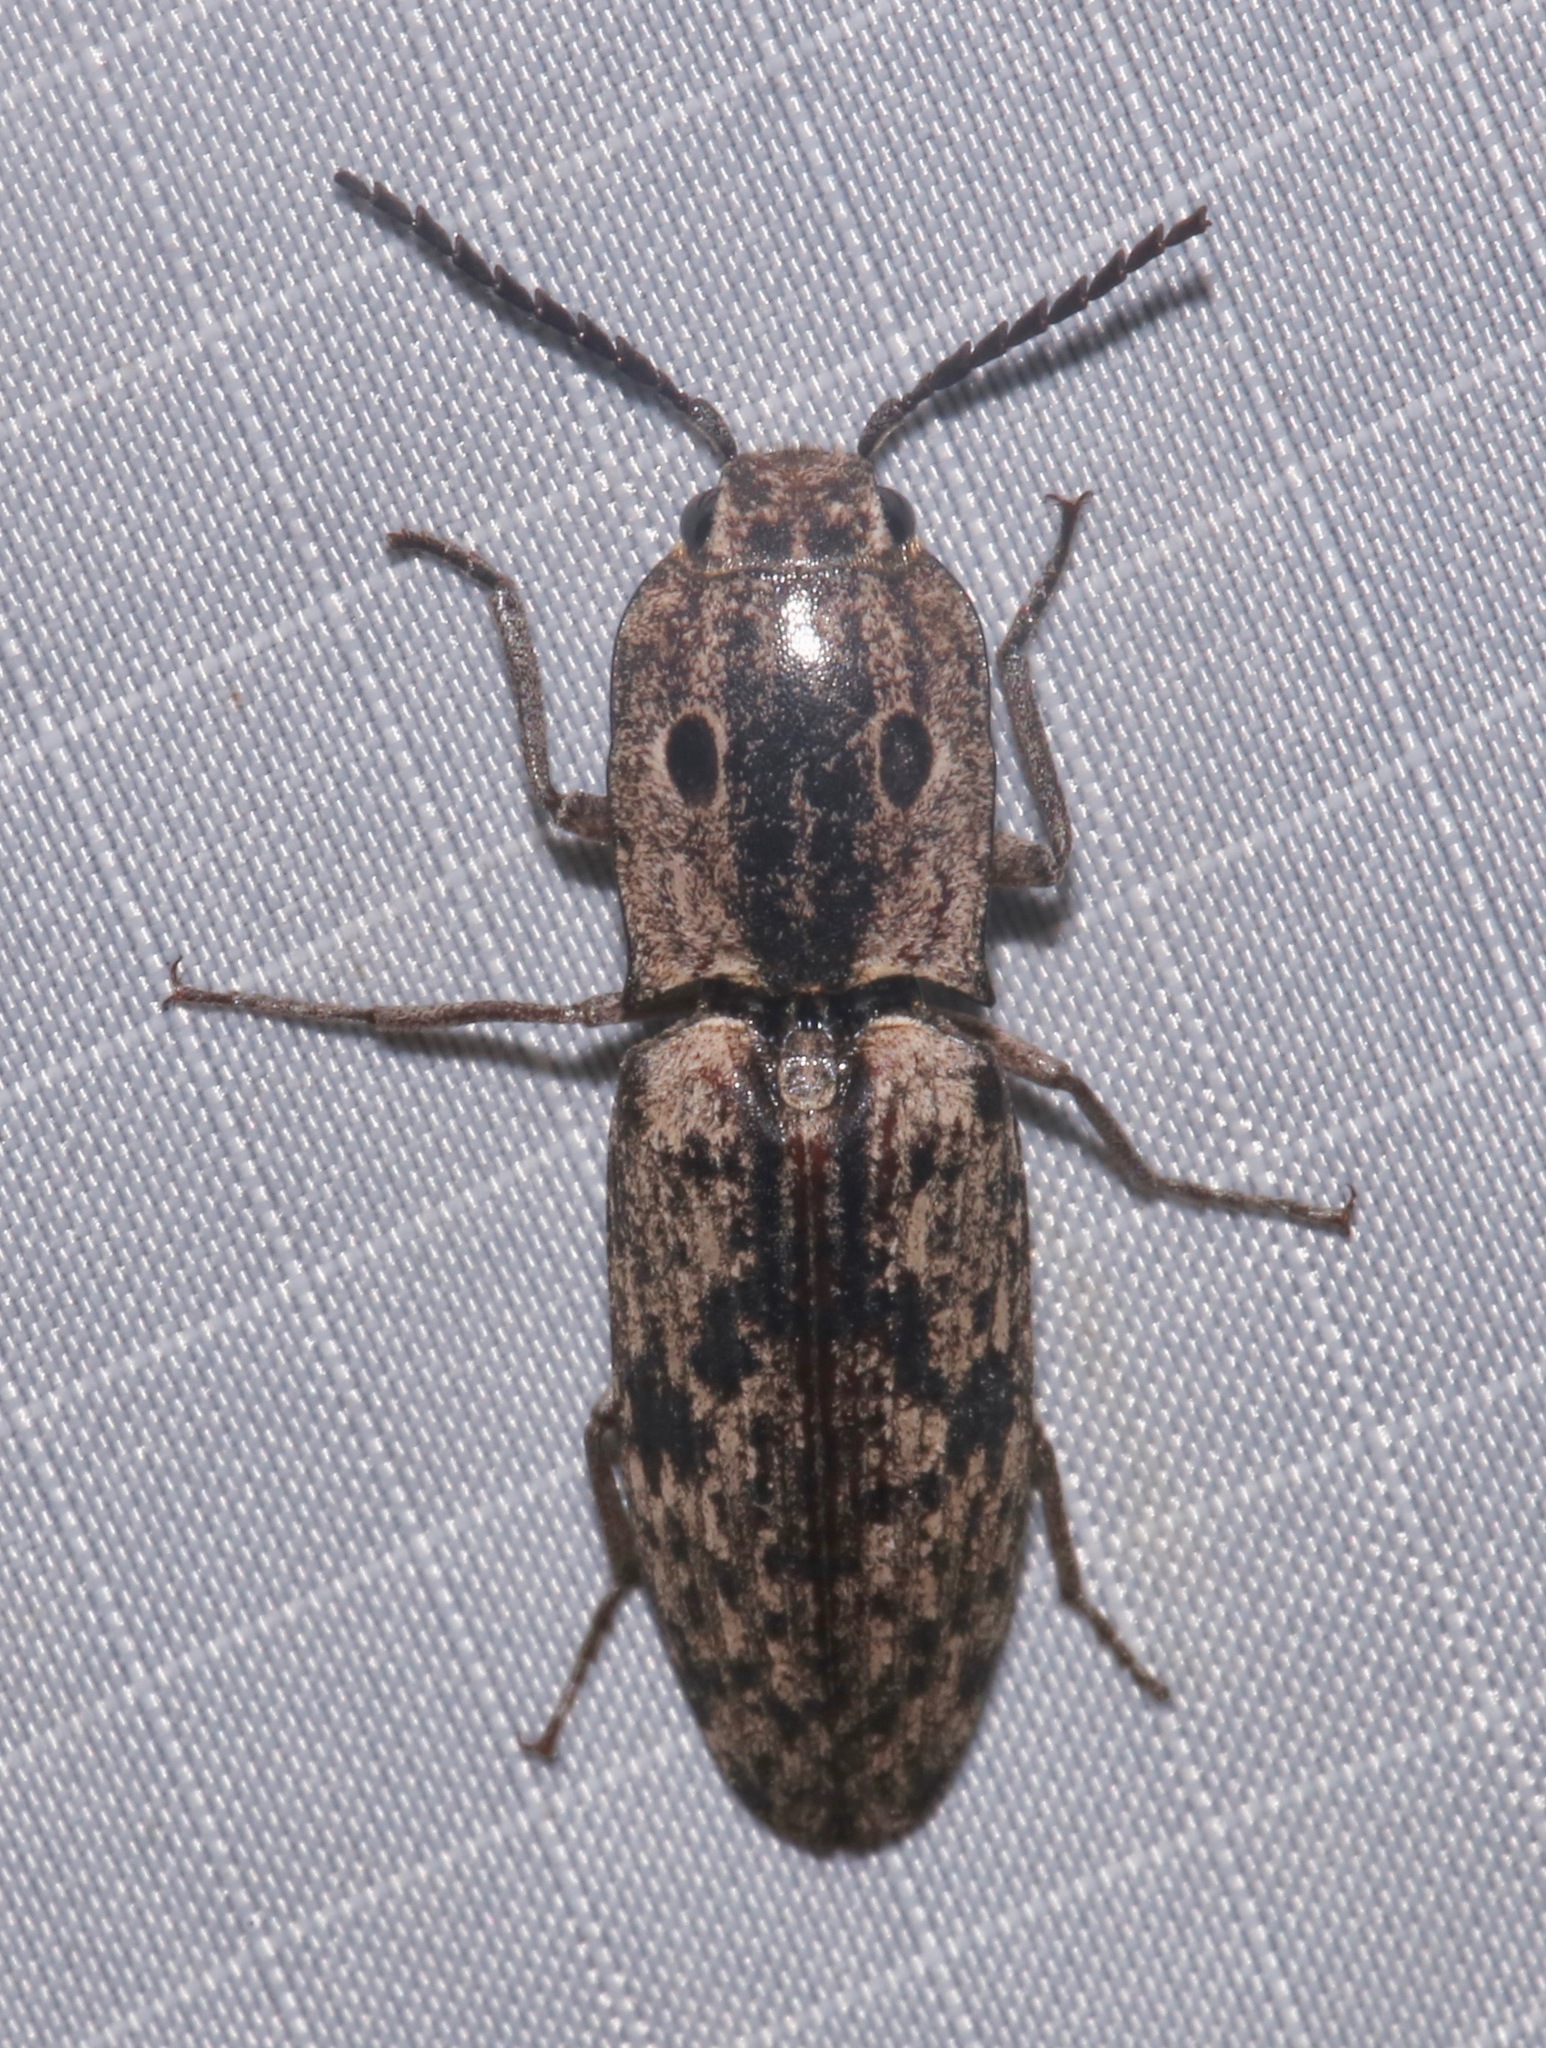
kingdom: Animalia
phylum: Arthropoda
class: Insecta
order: Coleoptera
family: Elateridae
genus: Alaus
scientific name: Alaus myops
